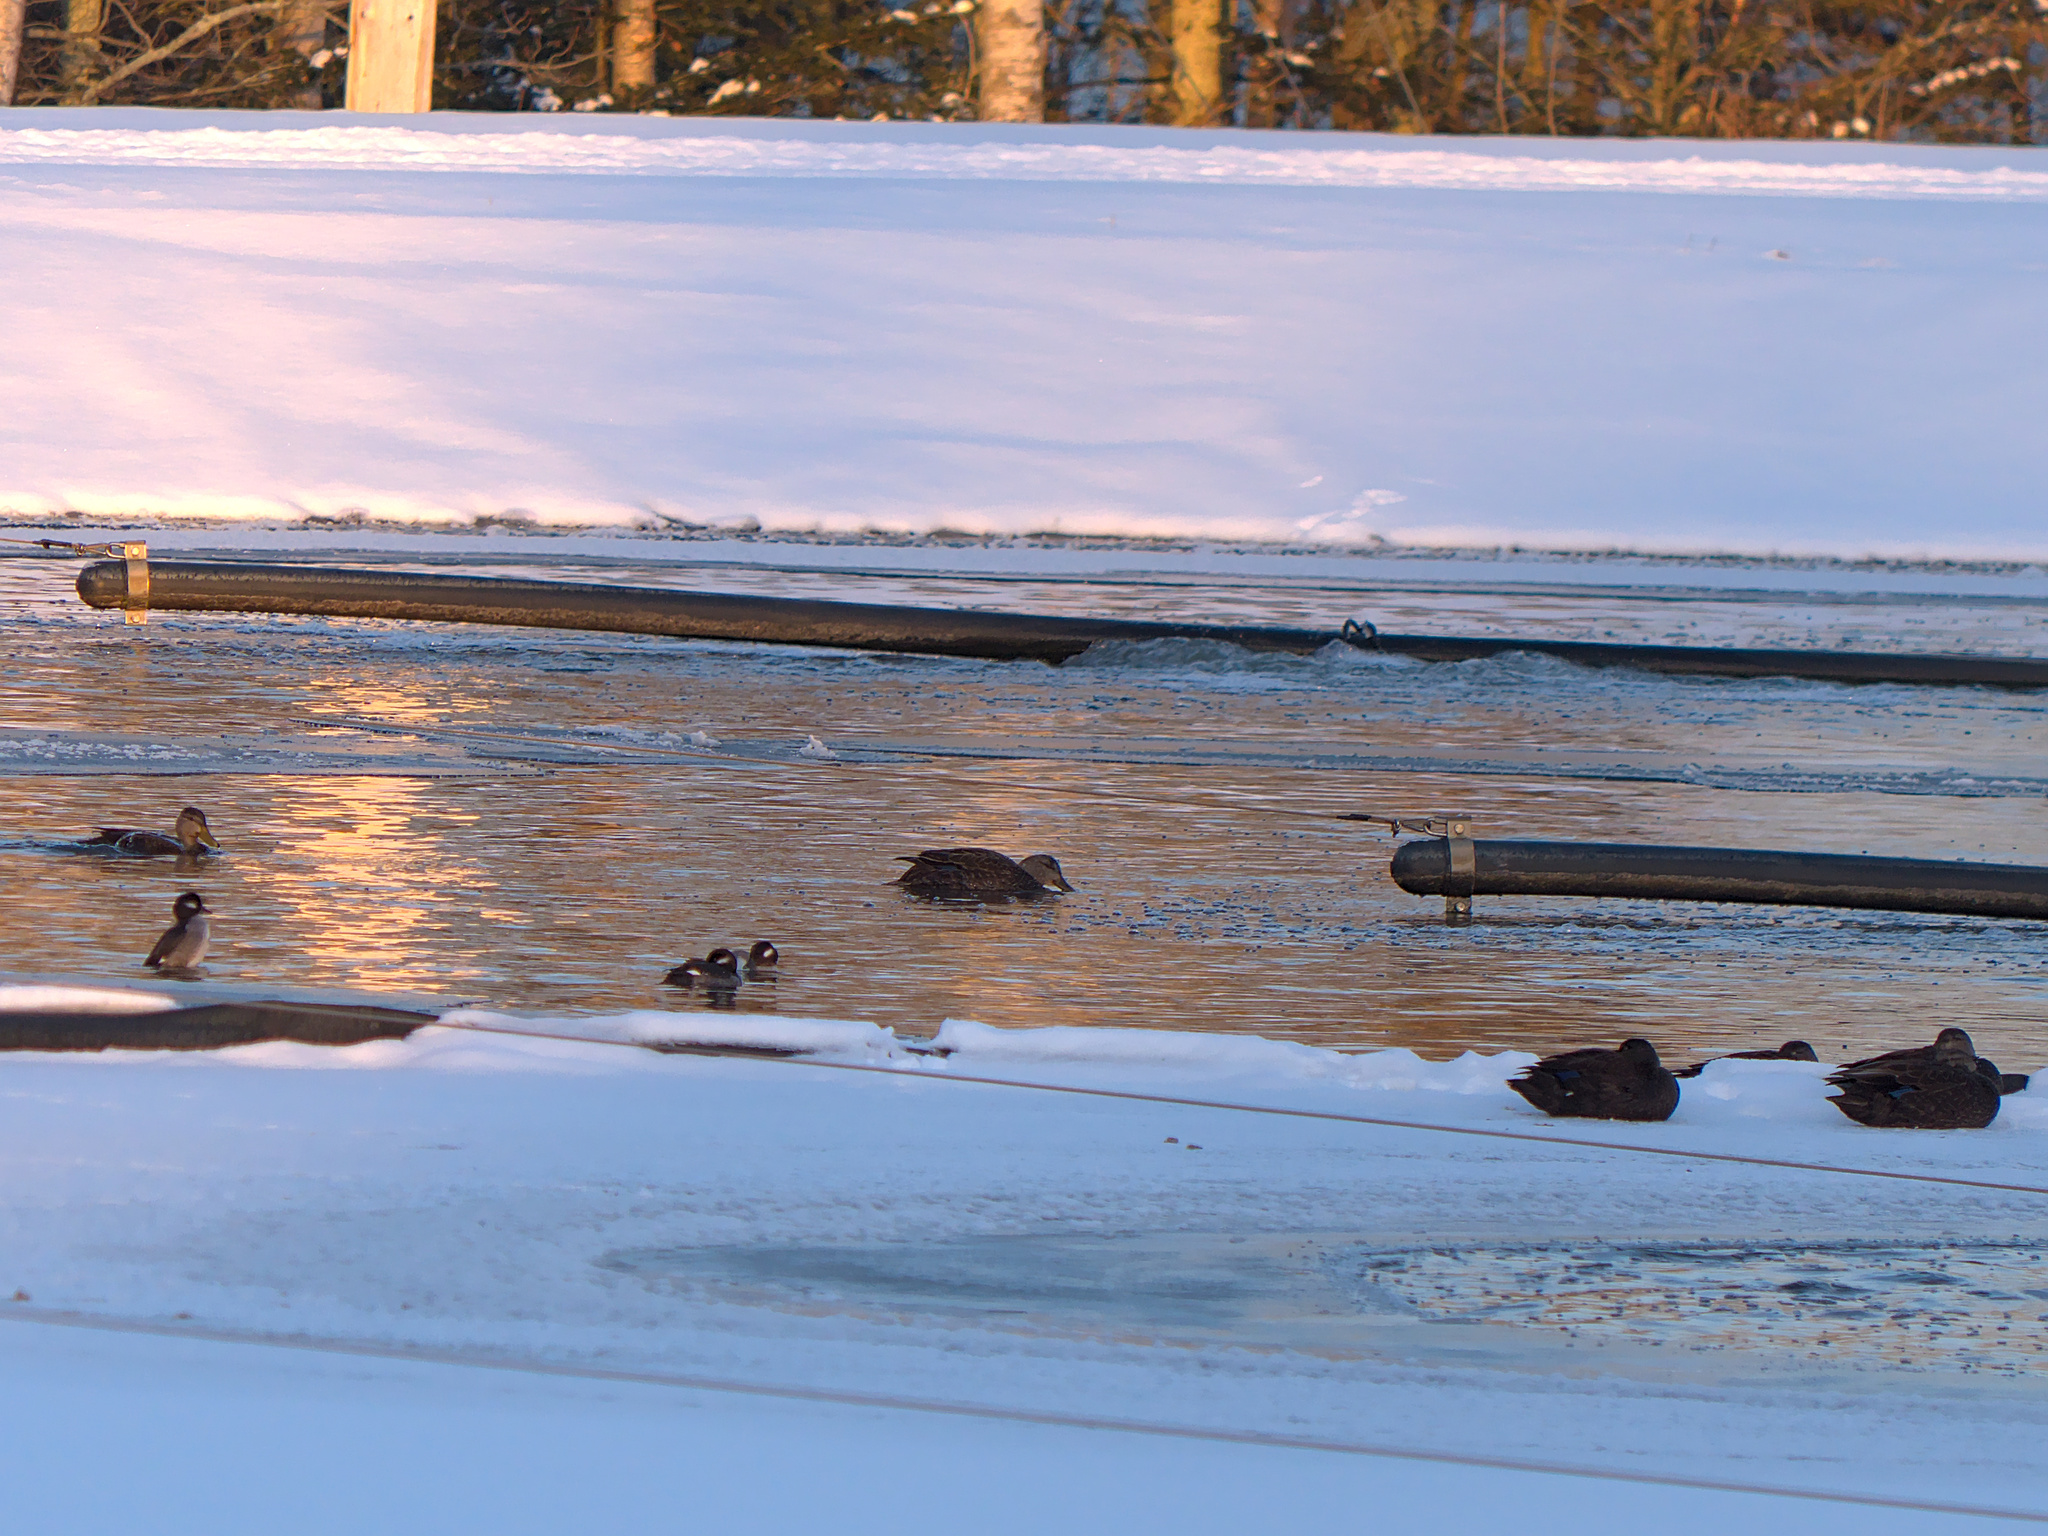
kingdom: Animalia
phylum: Chordata
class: Aves
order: Anseriformes
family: Anatidae
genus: Bucephala
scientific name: Bucephala albeola
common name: Bufflehead
